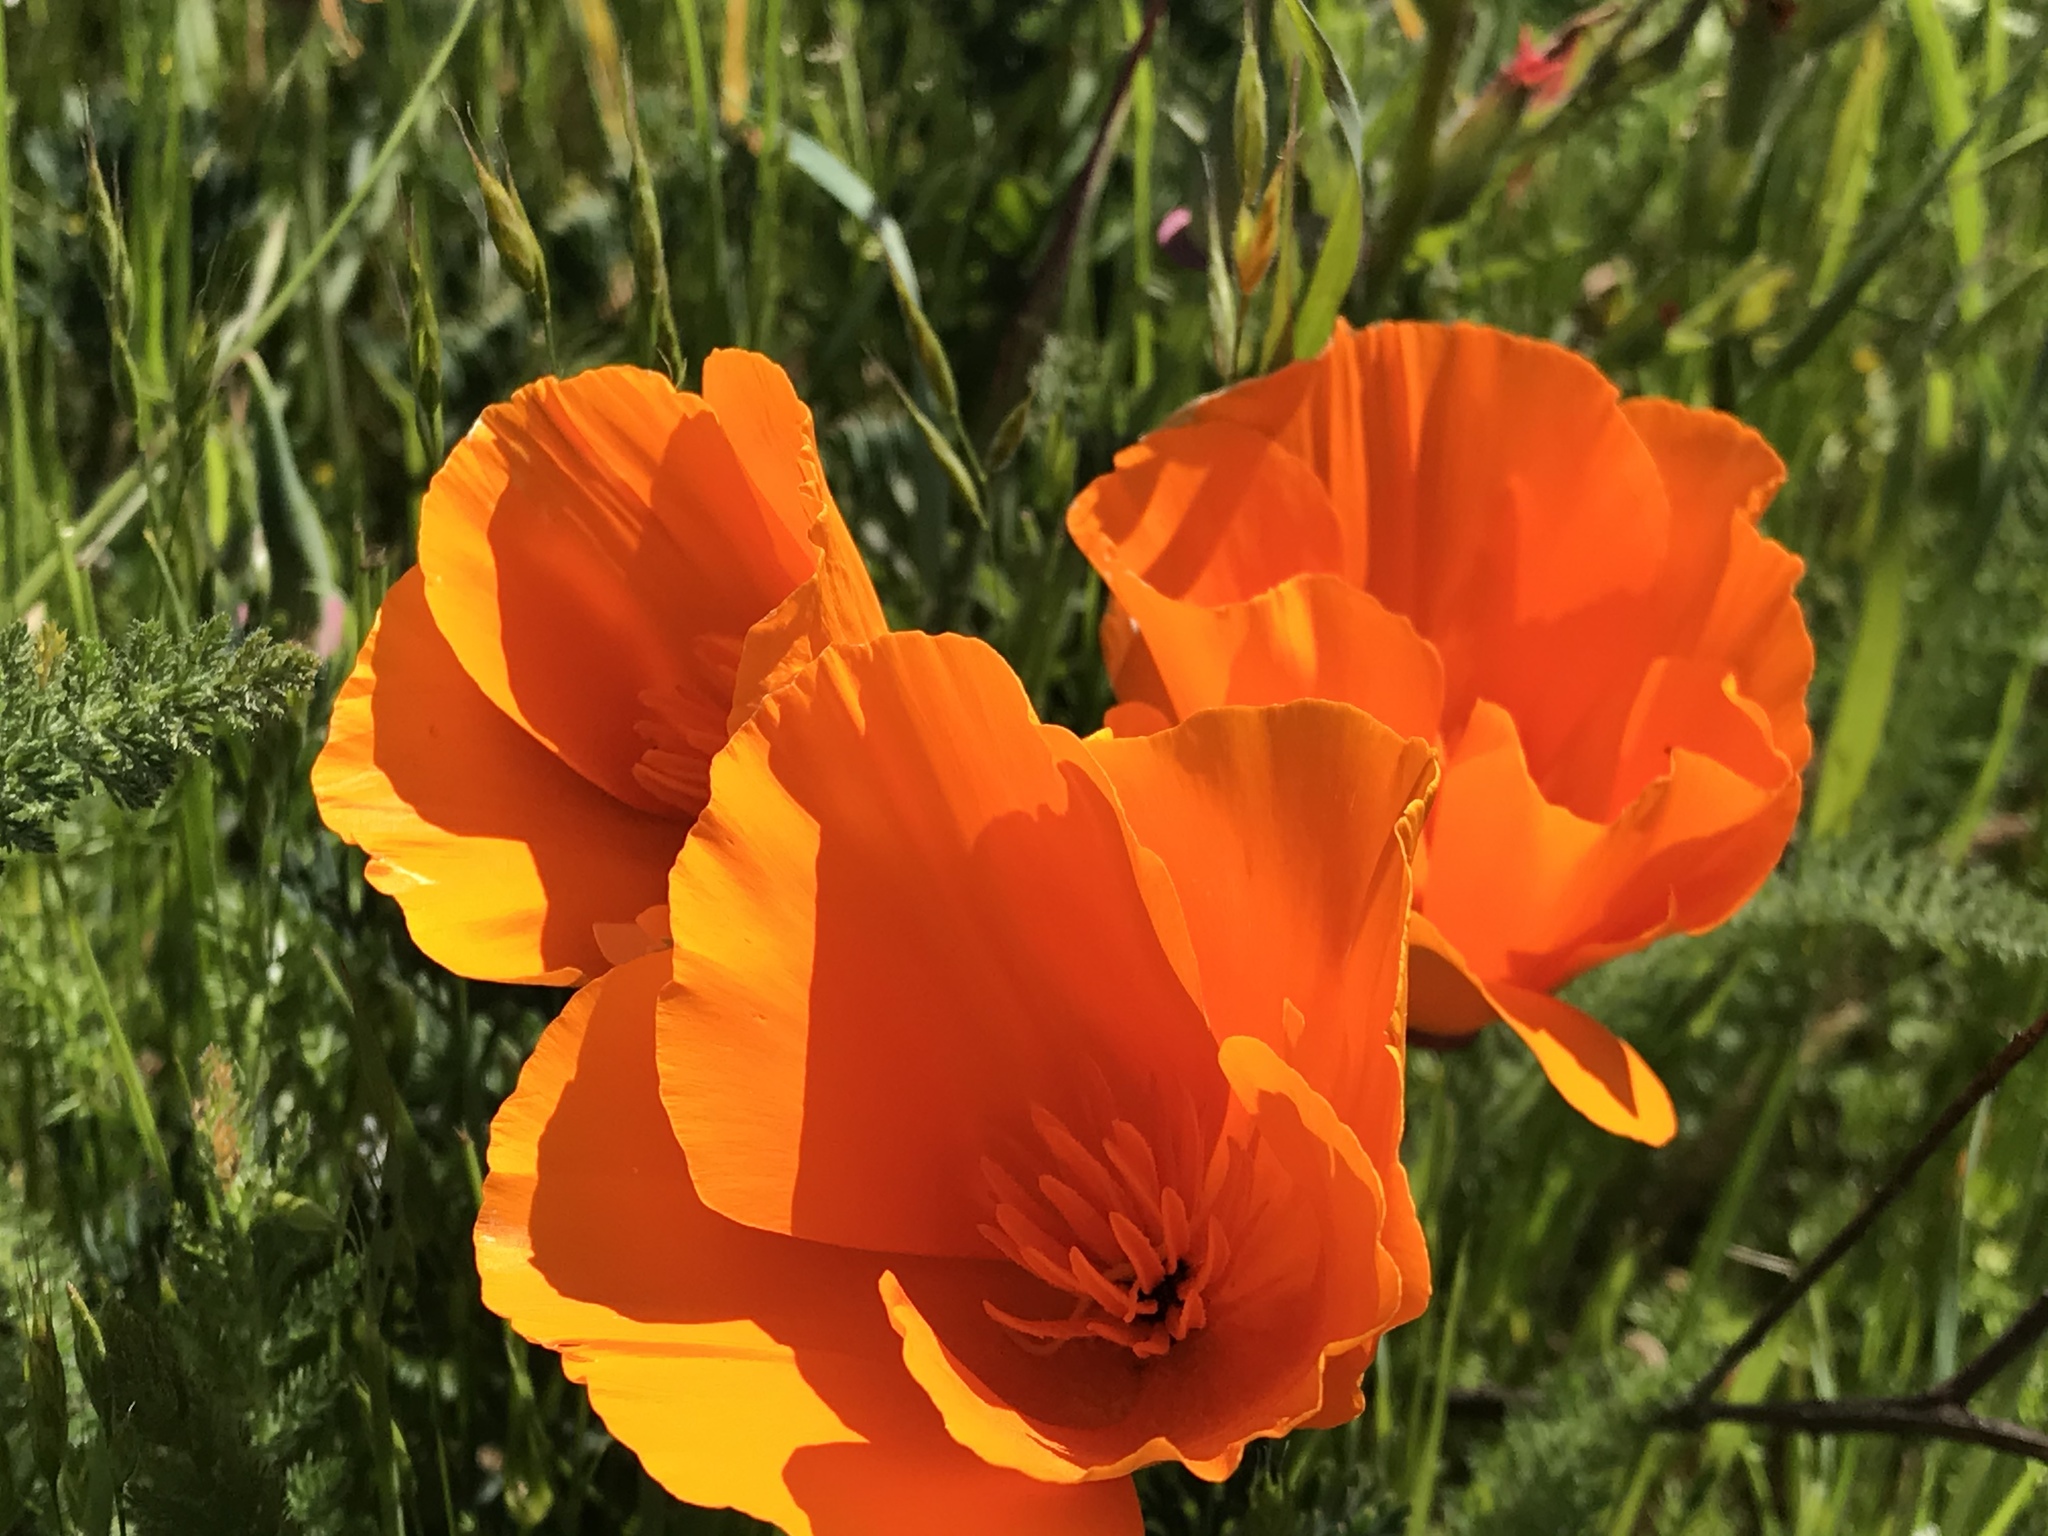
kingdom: Plantae
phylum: Tracheophyta
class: Magnoliopsida
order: Ranunculales
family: Papaveraceae
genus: Eschscholzia
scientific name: Eschscholzia californica
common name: California poppy
